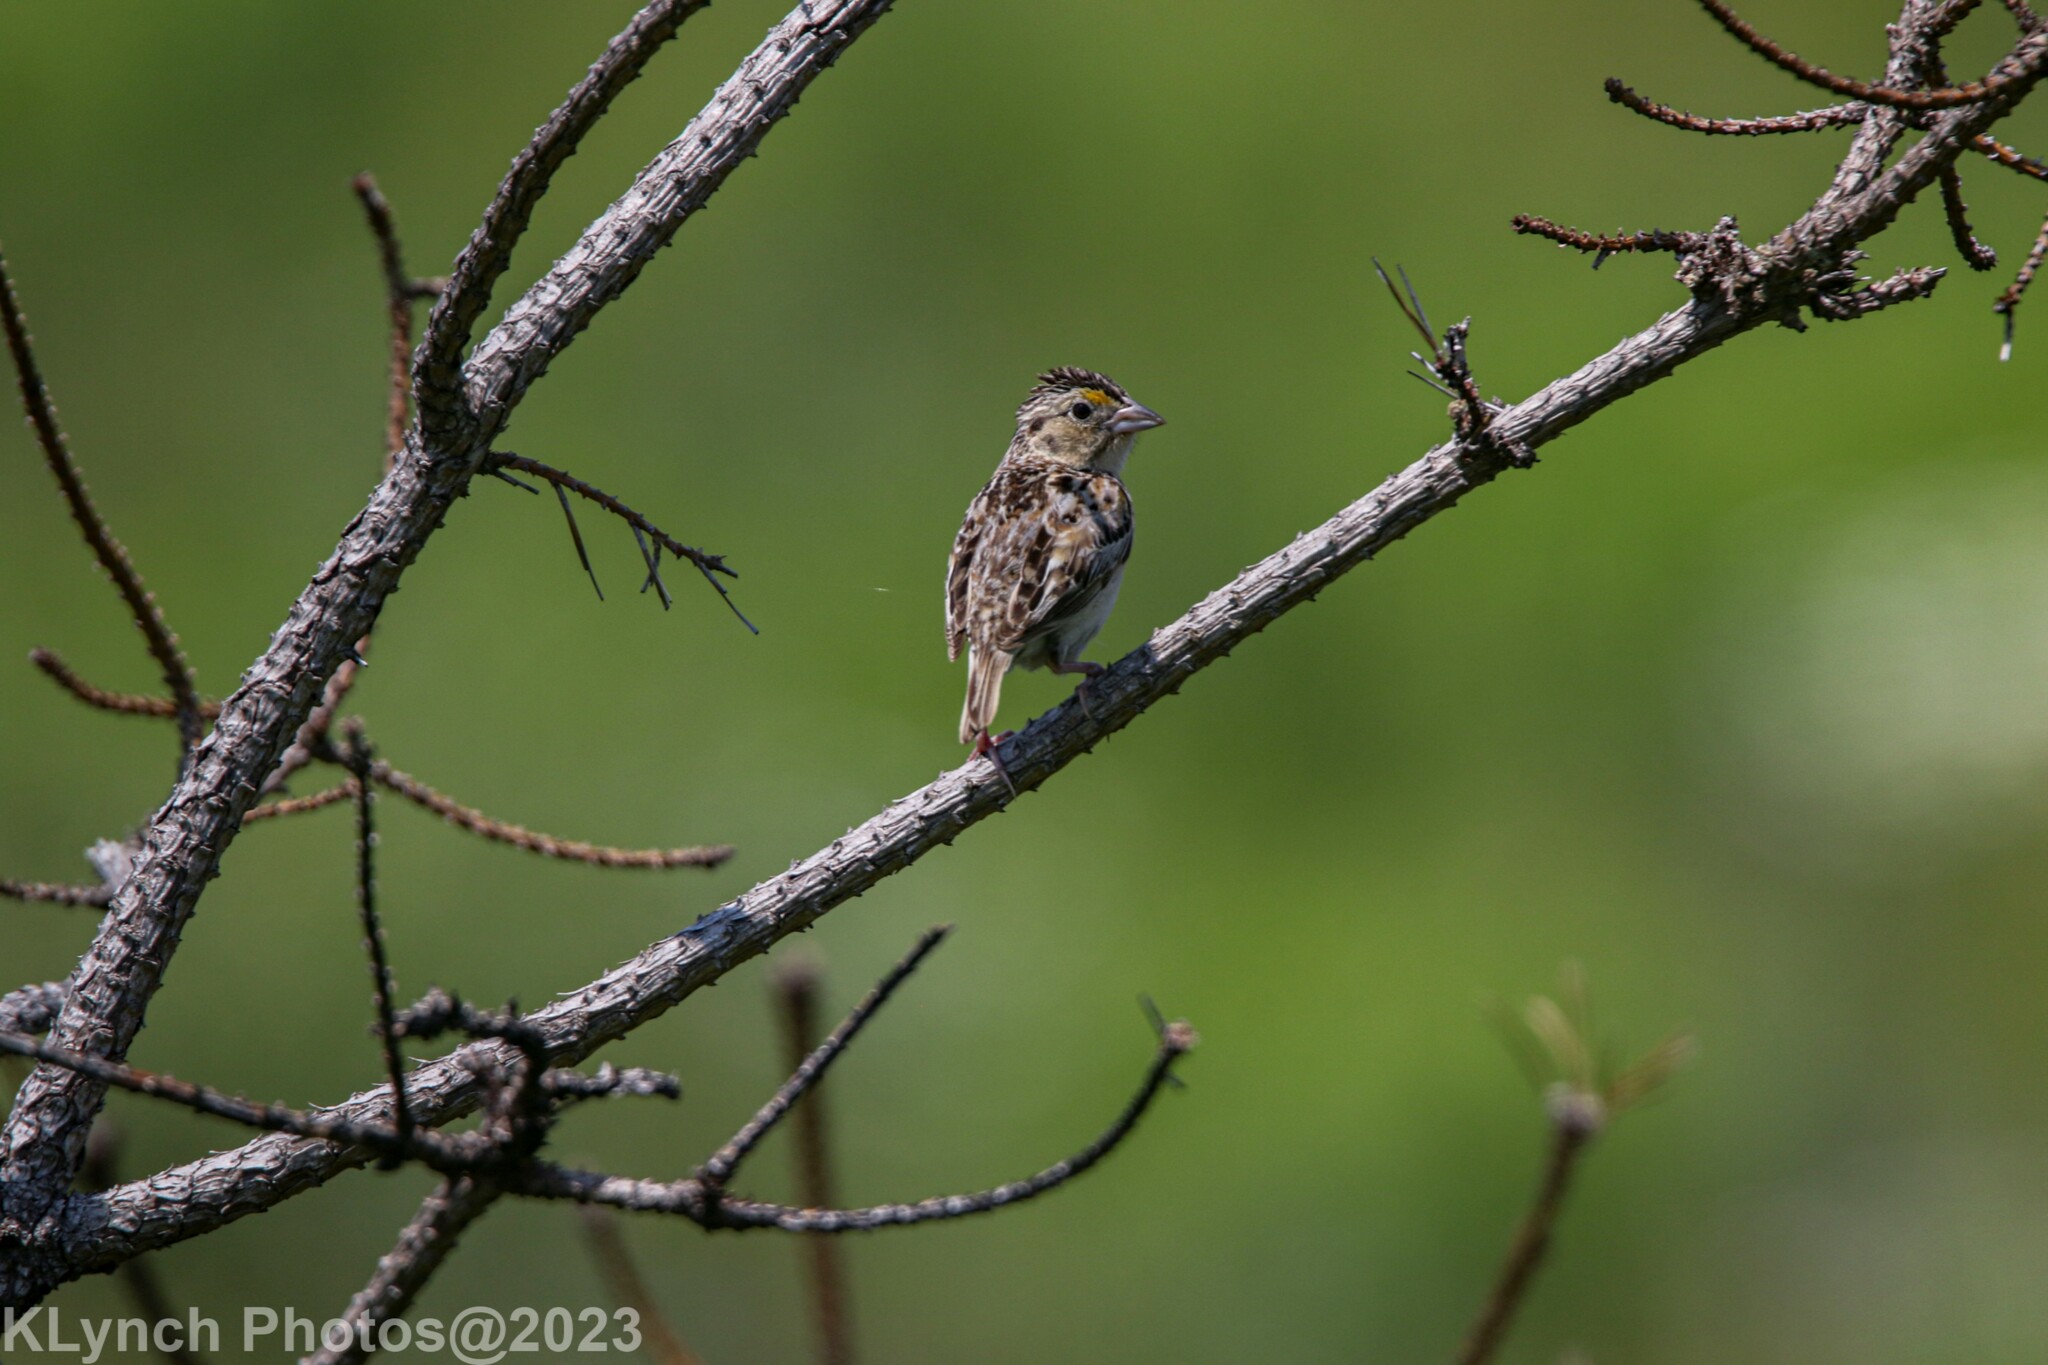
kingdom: Animalia
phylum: Chordata
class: Aves
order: Passeriformes
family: Passerellidae
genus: Ammodramus
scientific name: Ammodramus savannarum
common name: Grasshopper sparrow
